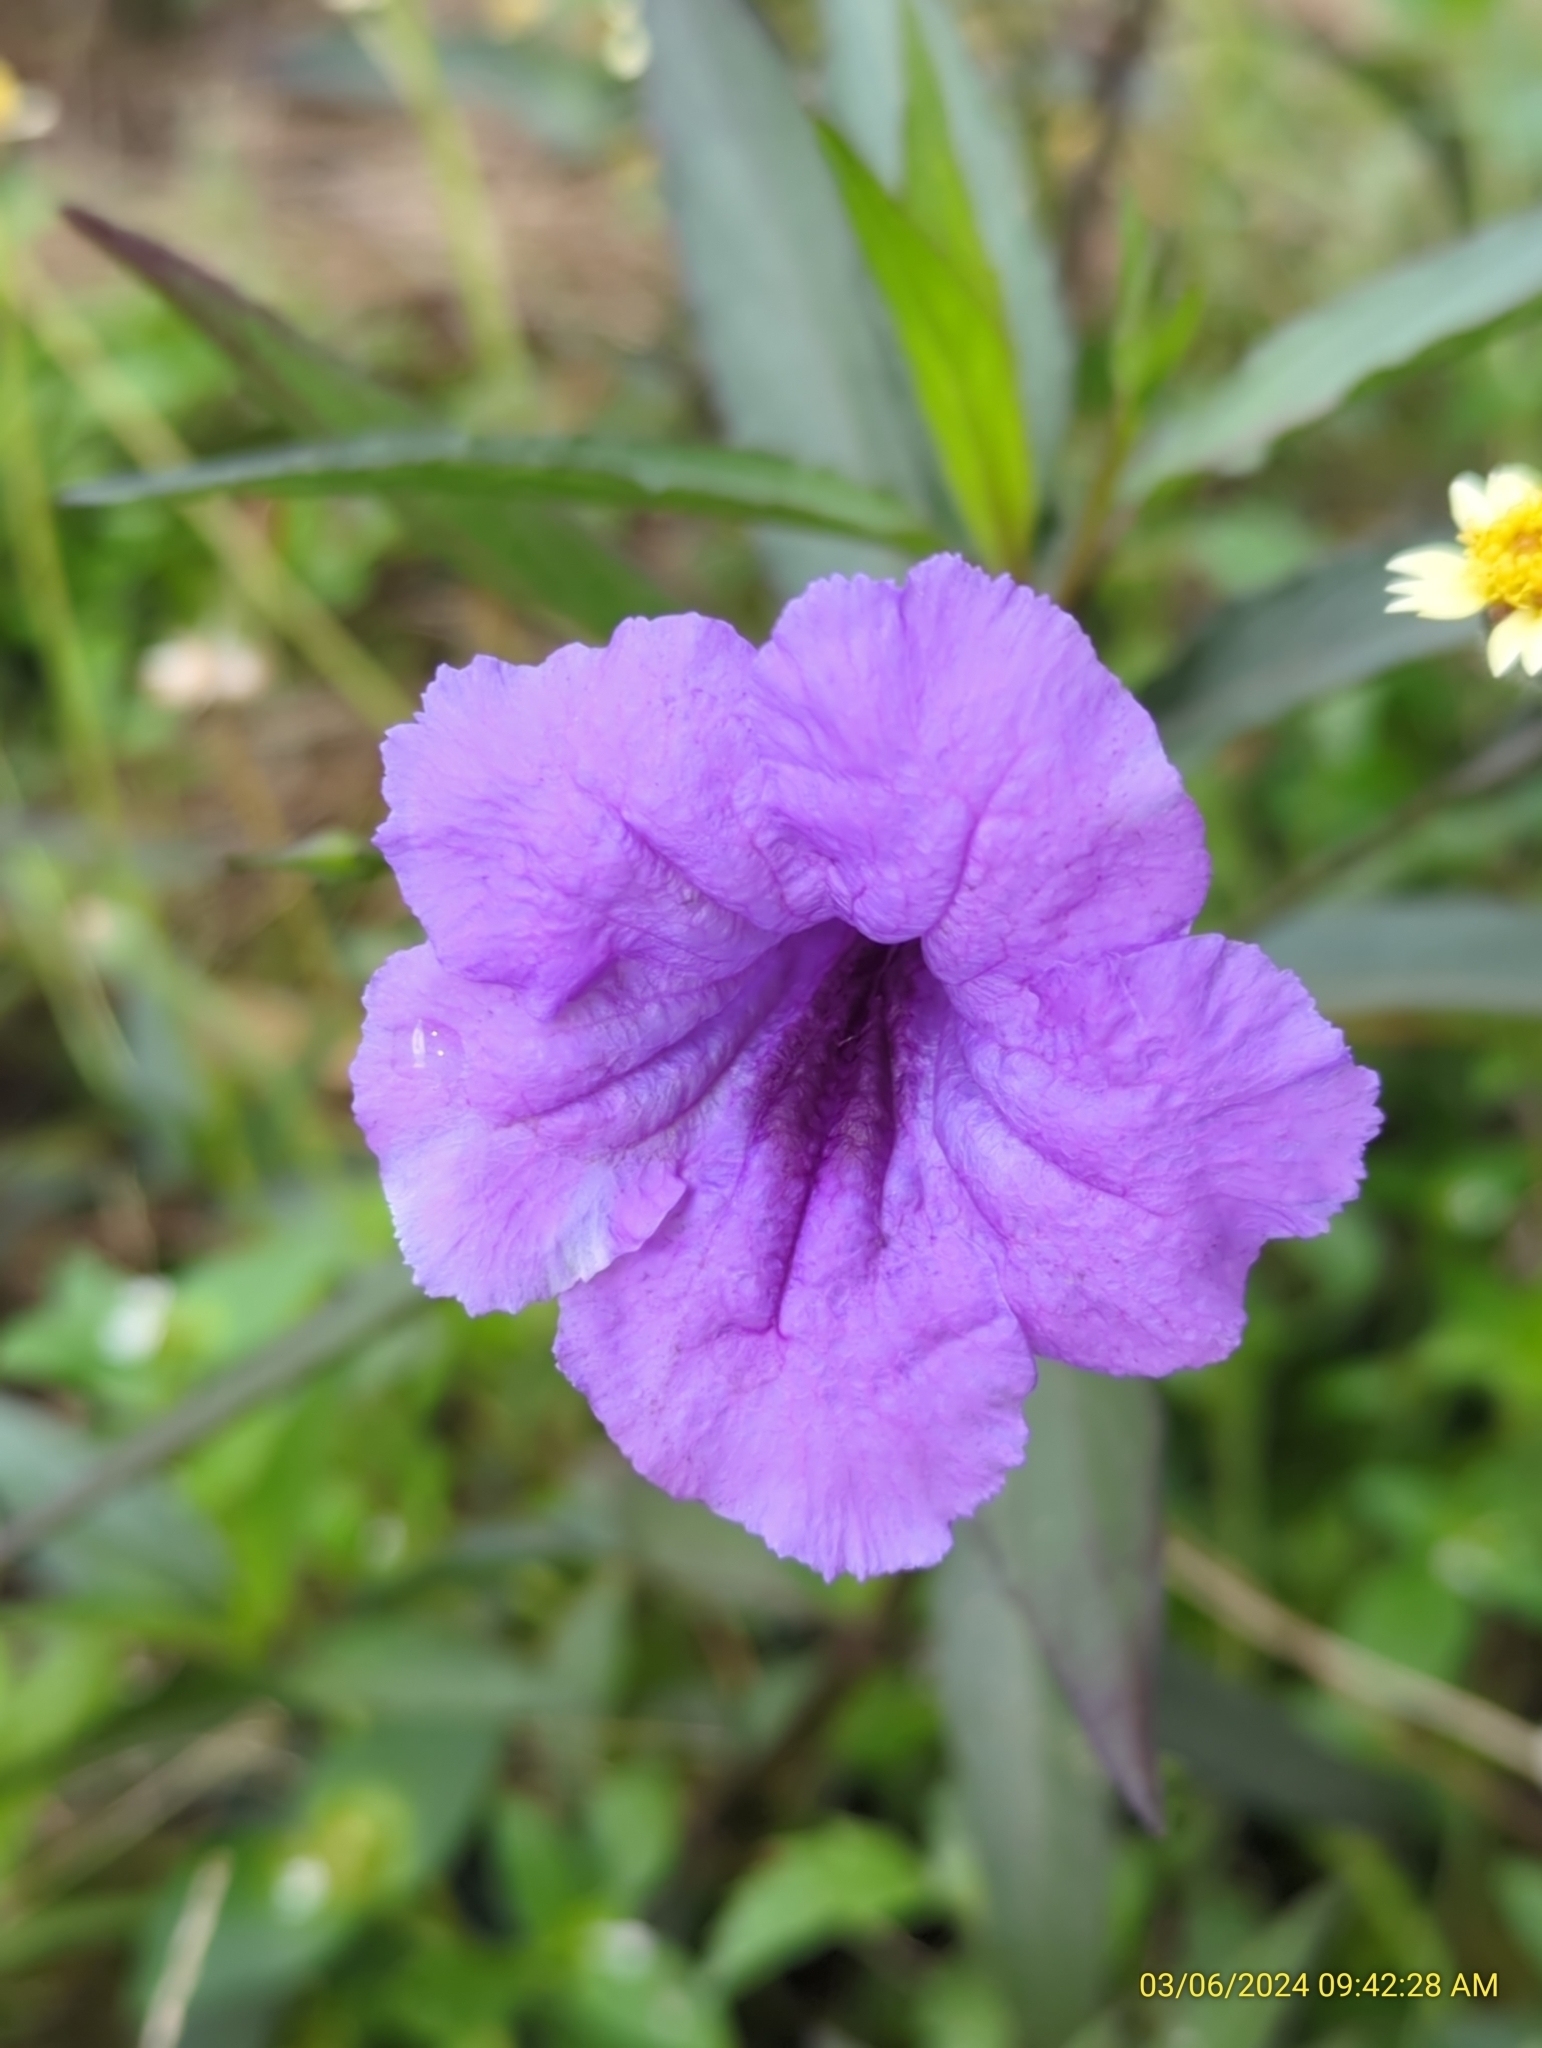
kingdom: Plantae
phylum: Tracheophyta
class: Magnoliopsida
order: Lamiales
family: Acanthaceae
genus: Ruellia
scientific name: Ruellia simplex
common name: Softseed wild petunia
